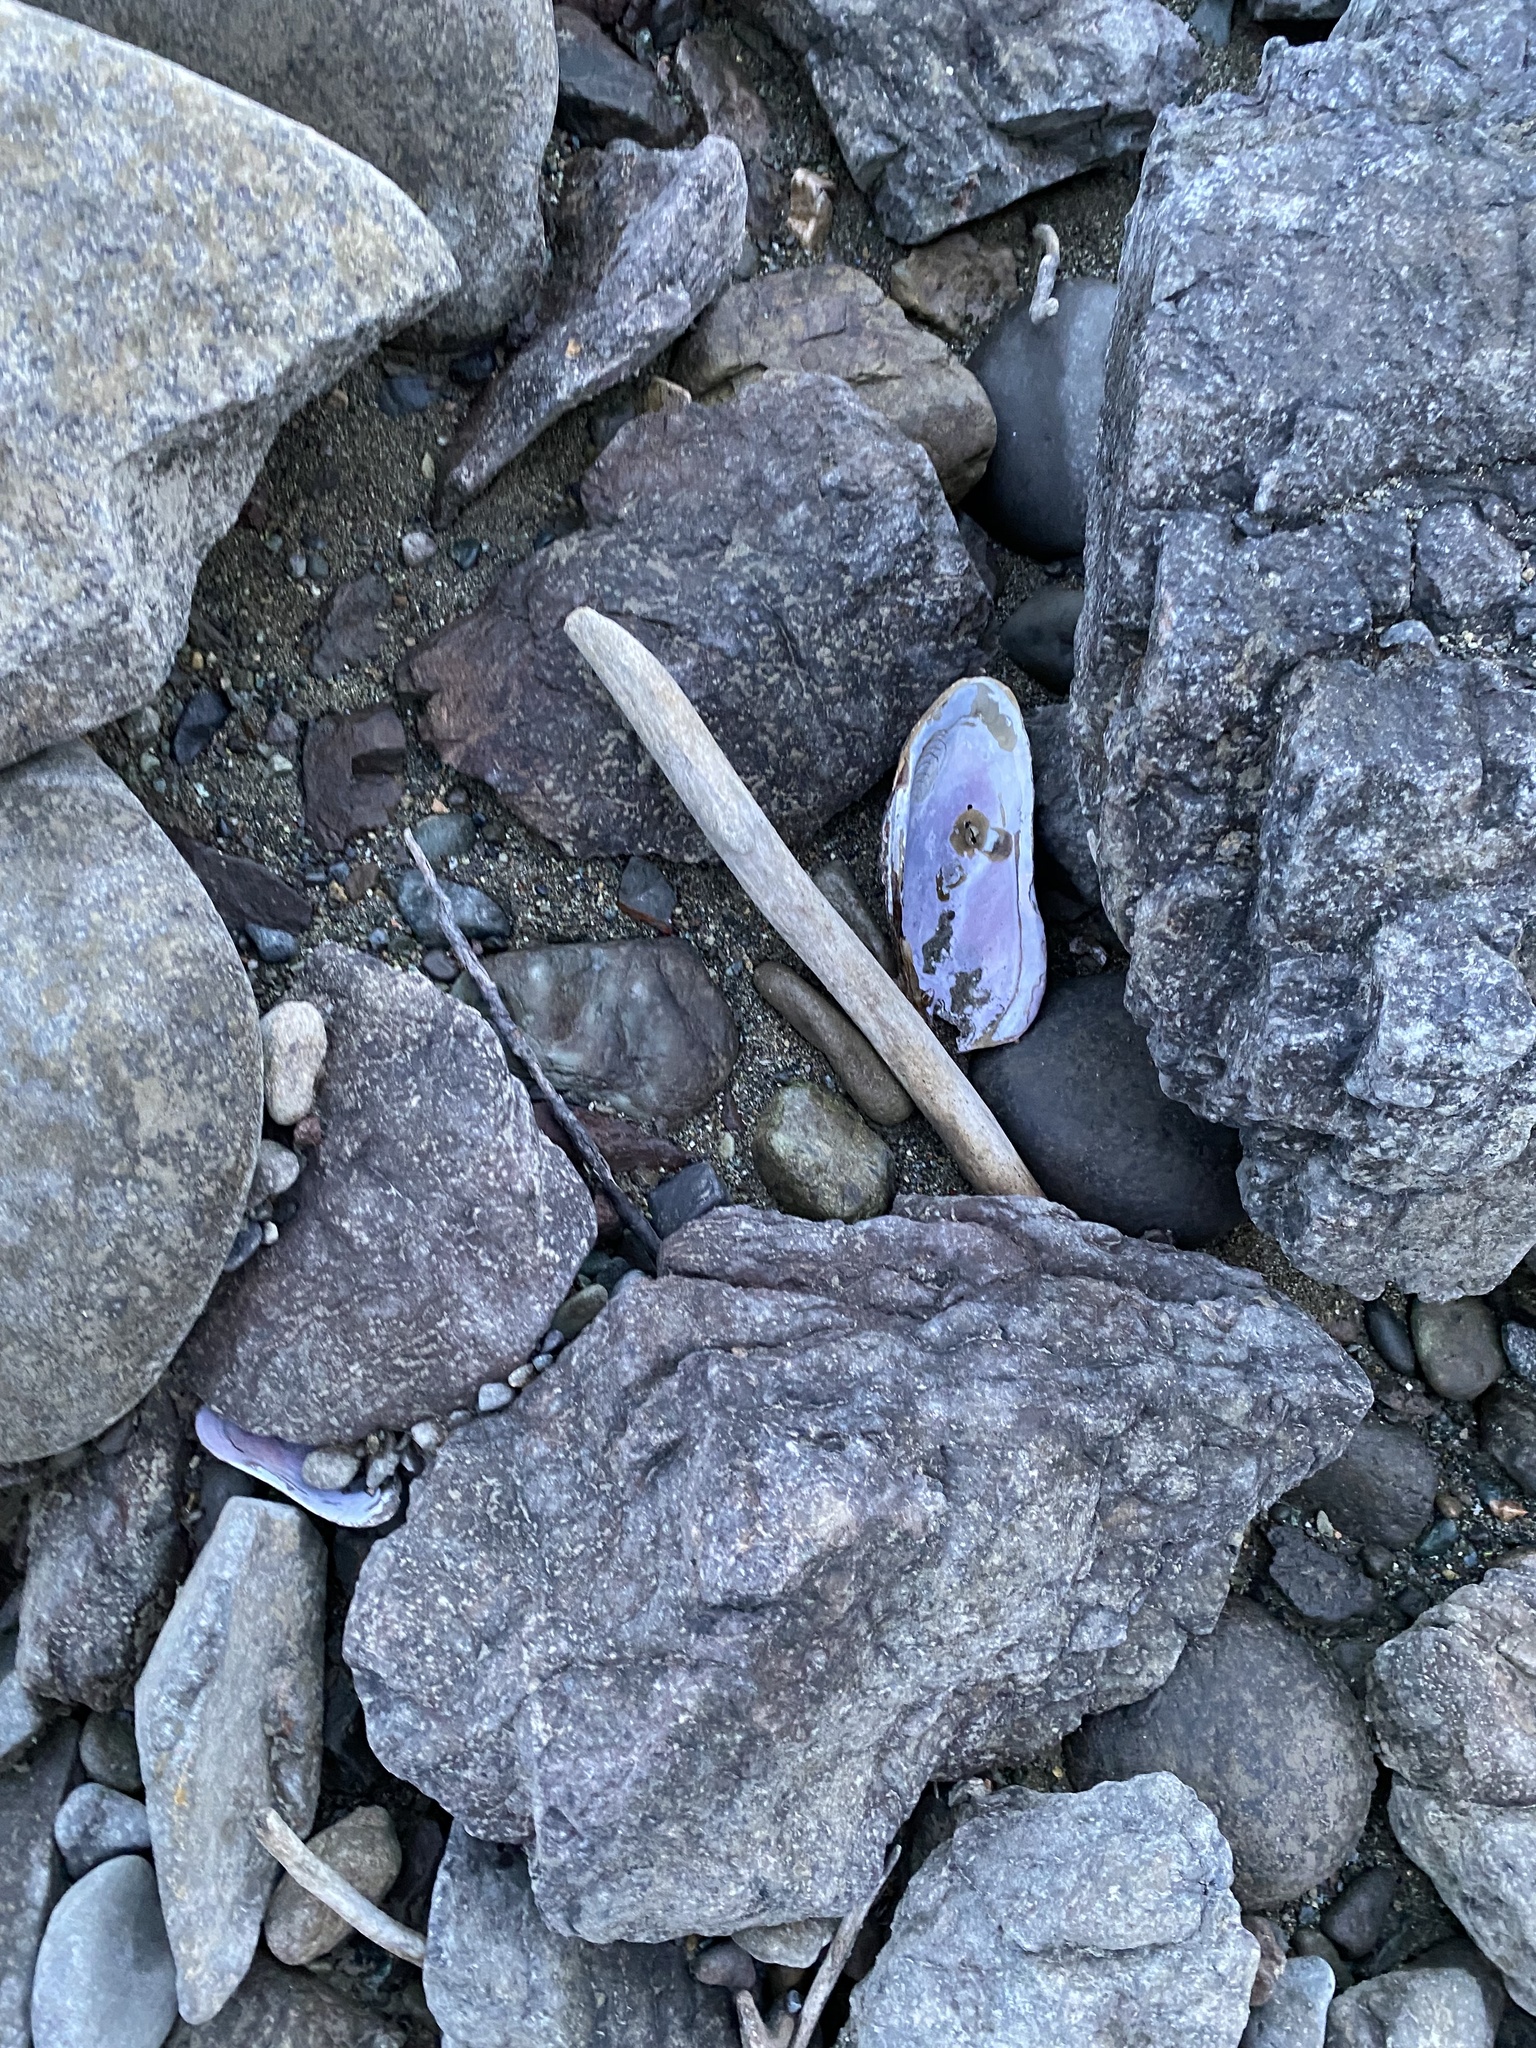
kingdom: Animalia
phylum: Mollusca
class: Bivalvia
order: Unionida
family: Margaritiferidae
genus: Margaritifera
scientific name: Margaritifera falcata
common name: Western pearlshell
